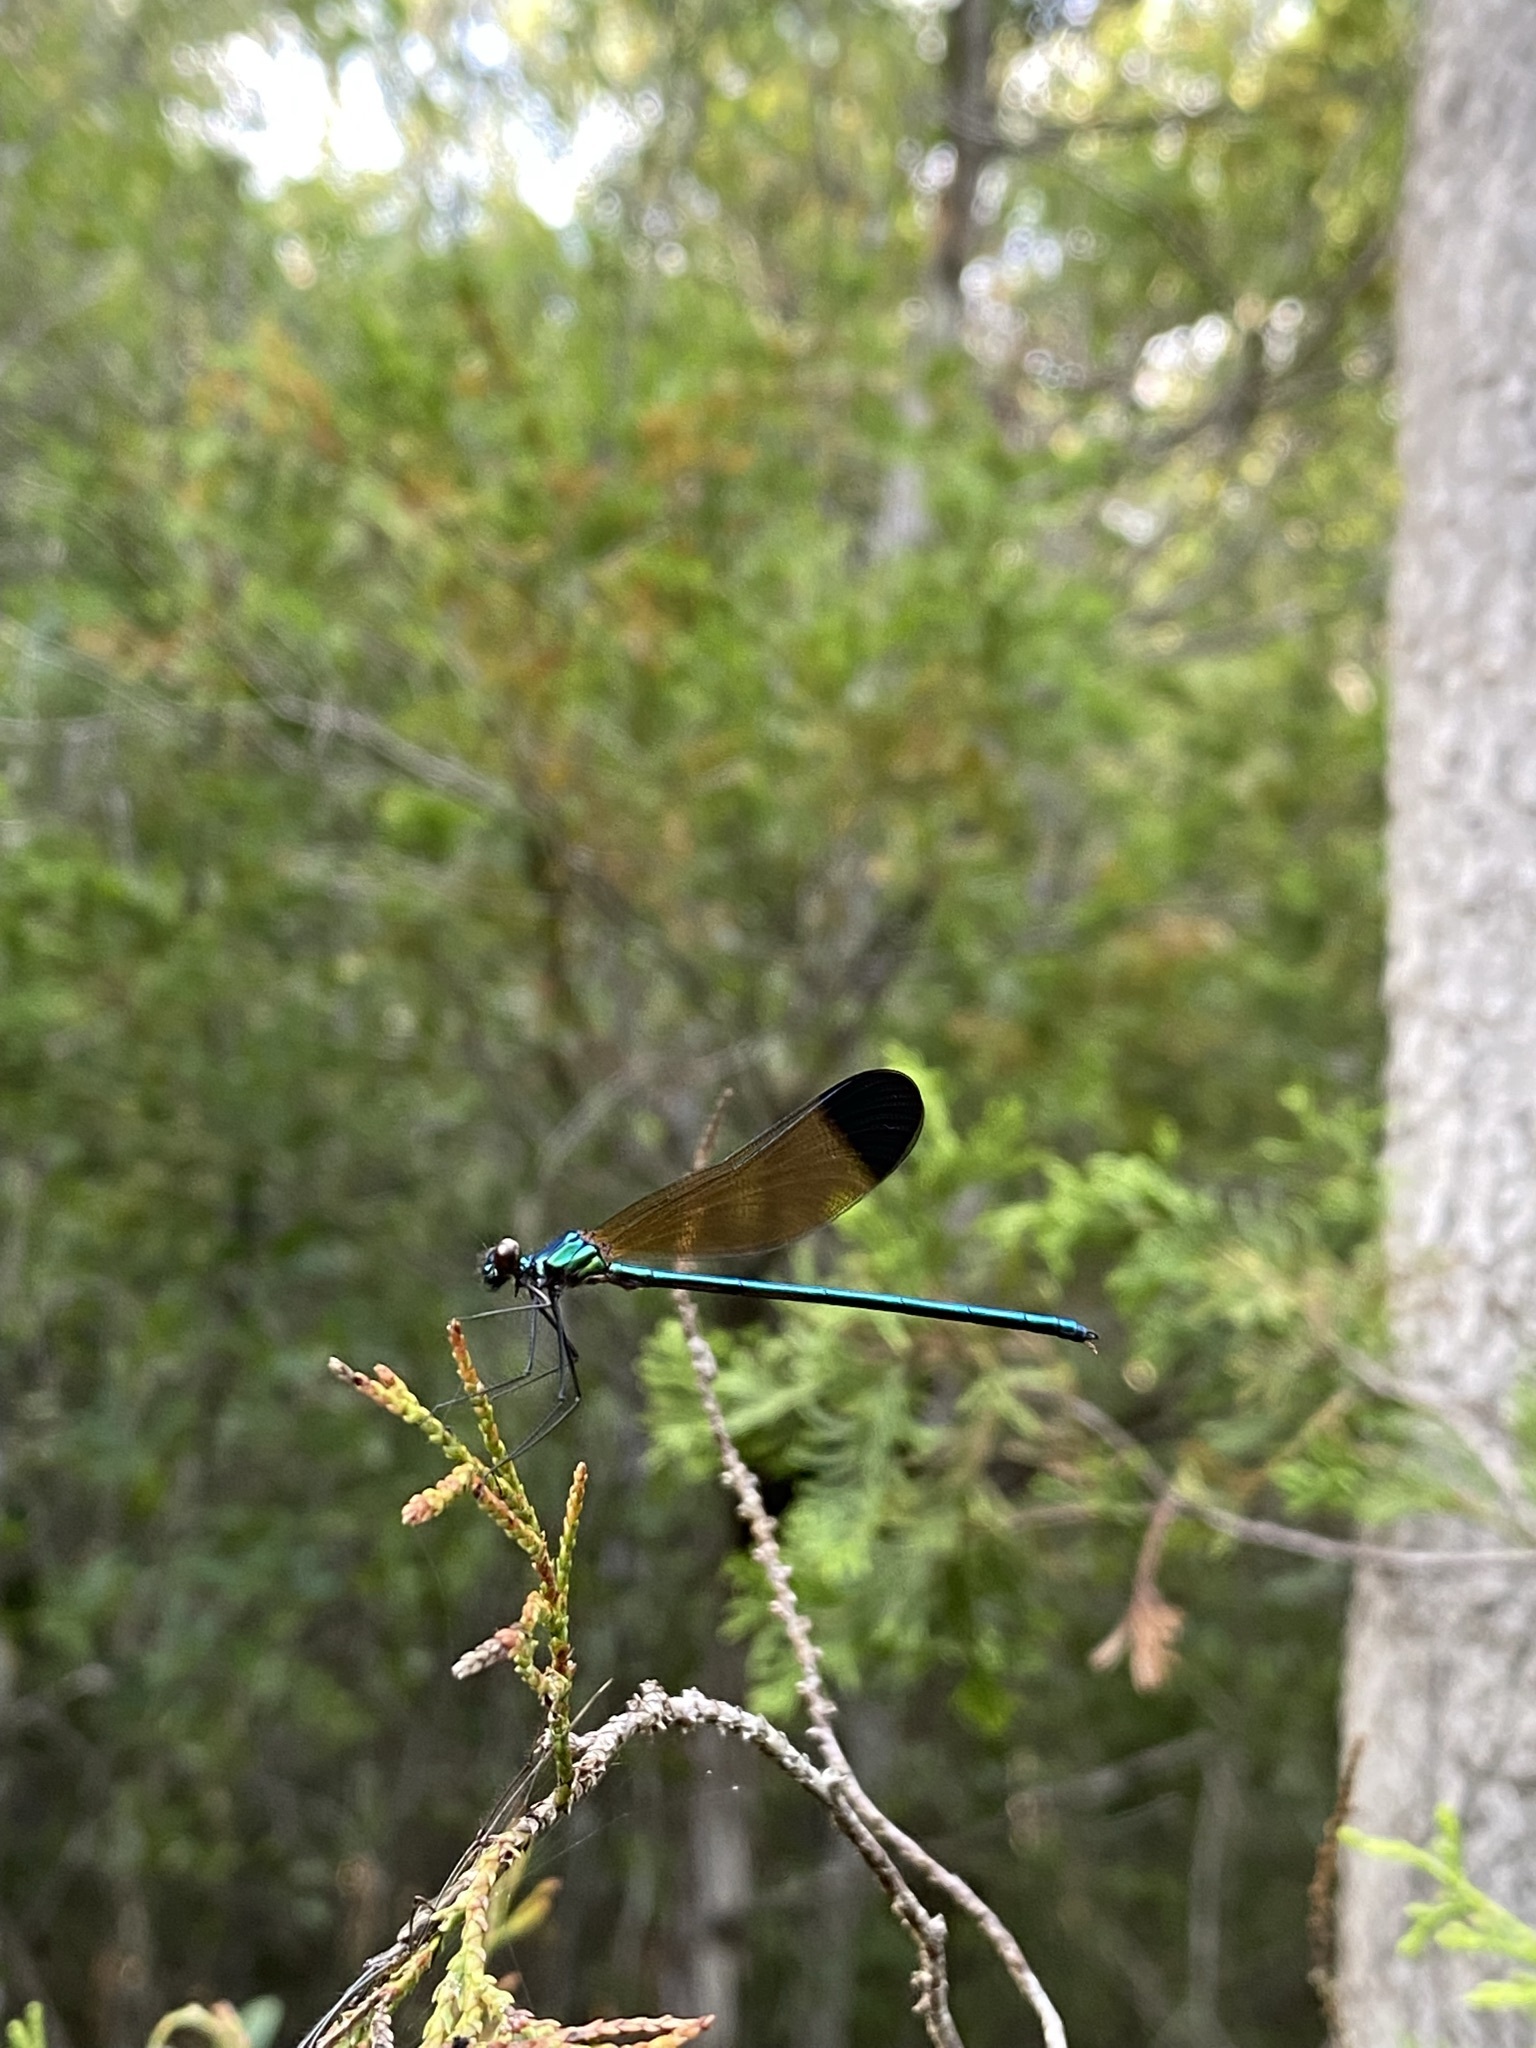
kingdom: Animalia
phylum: Arthropoda
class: Insecta
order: Odonata
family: Calopterygidae
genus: Calopteryx
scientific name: Calopteryx dimidiata
